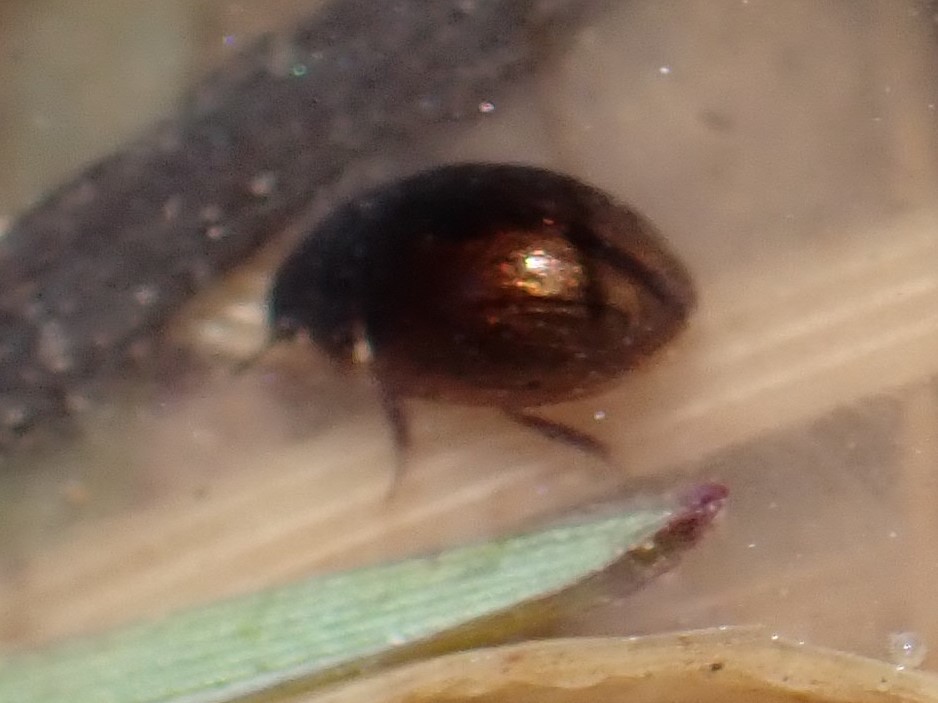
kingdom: Animalia
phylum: Arthropoda
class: Insecta
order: Coleoptera
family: Hydrophilidae
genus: Anacaena
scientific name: Anacaena
